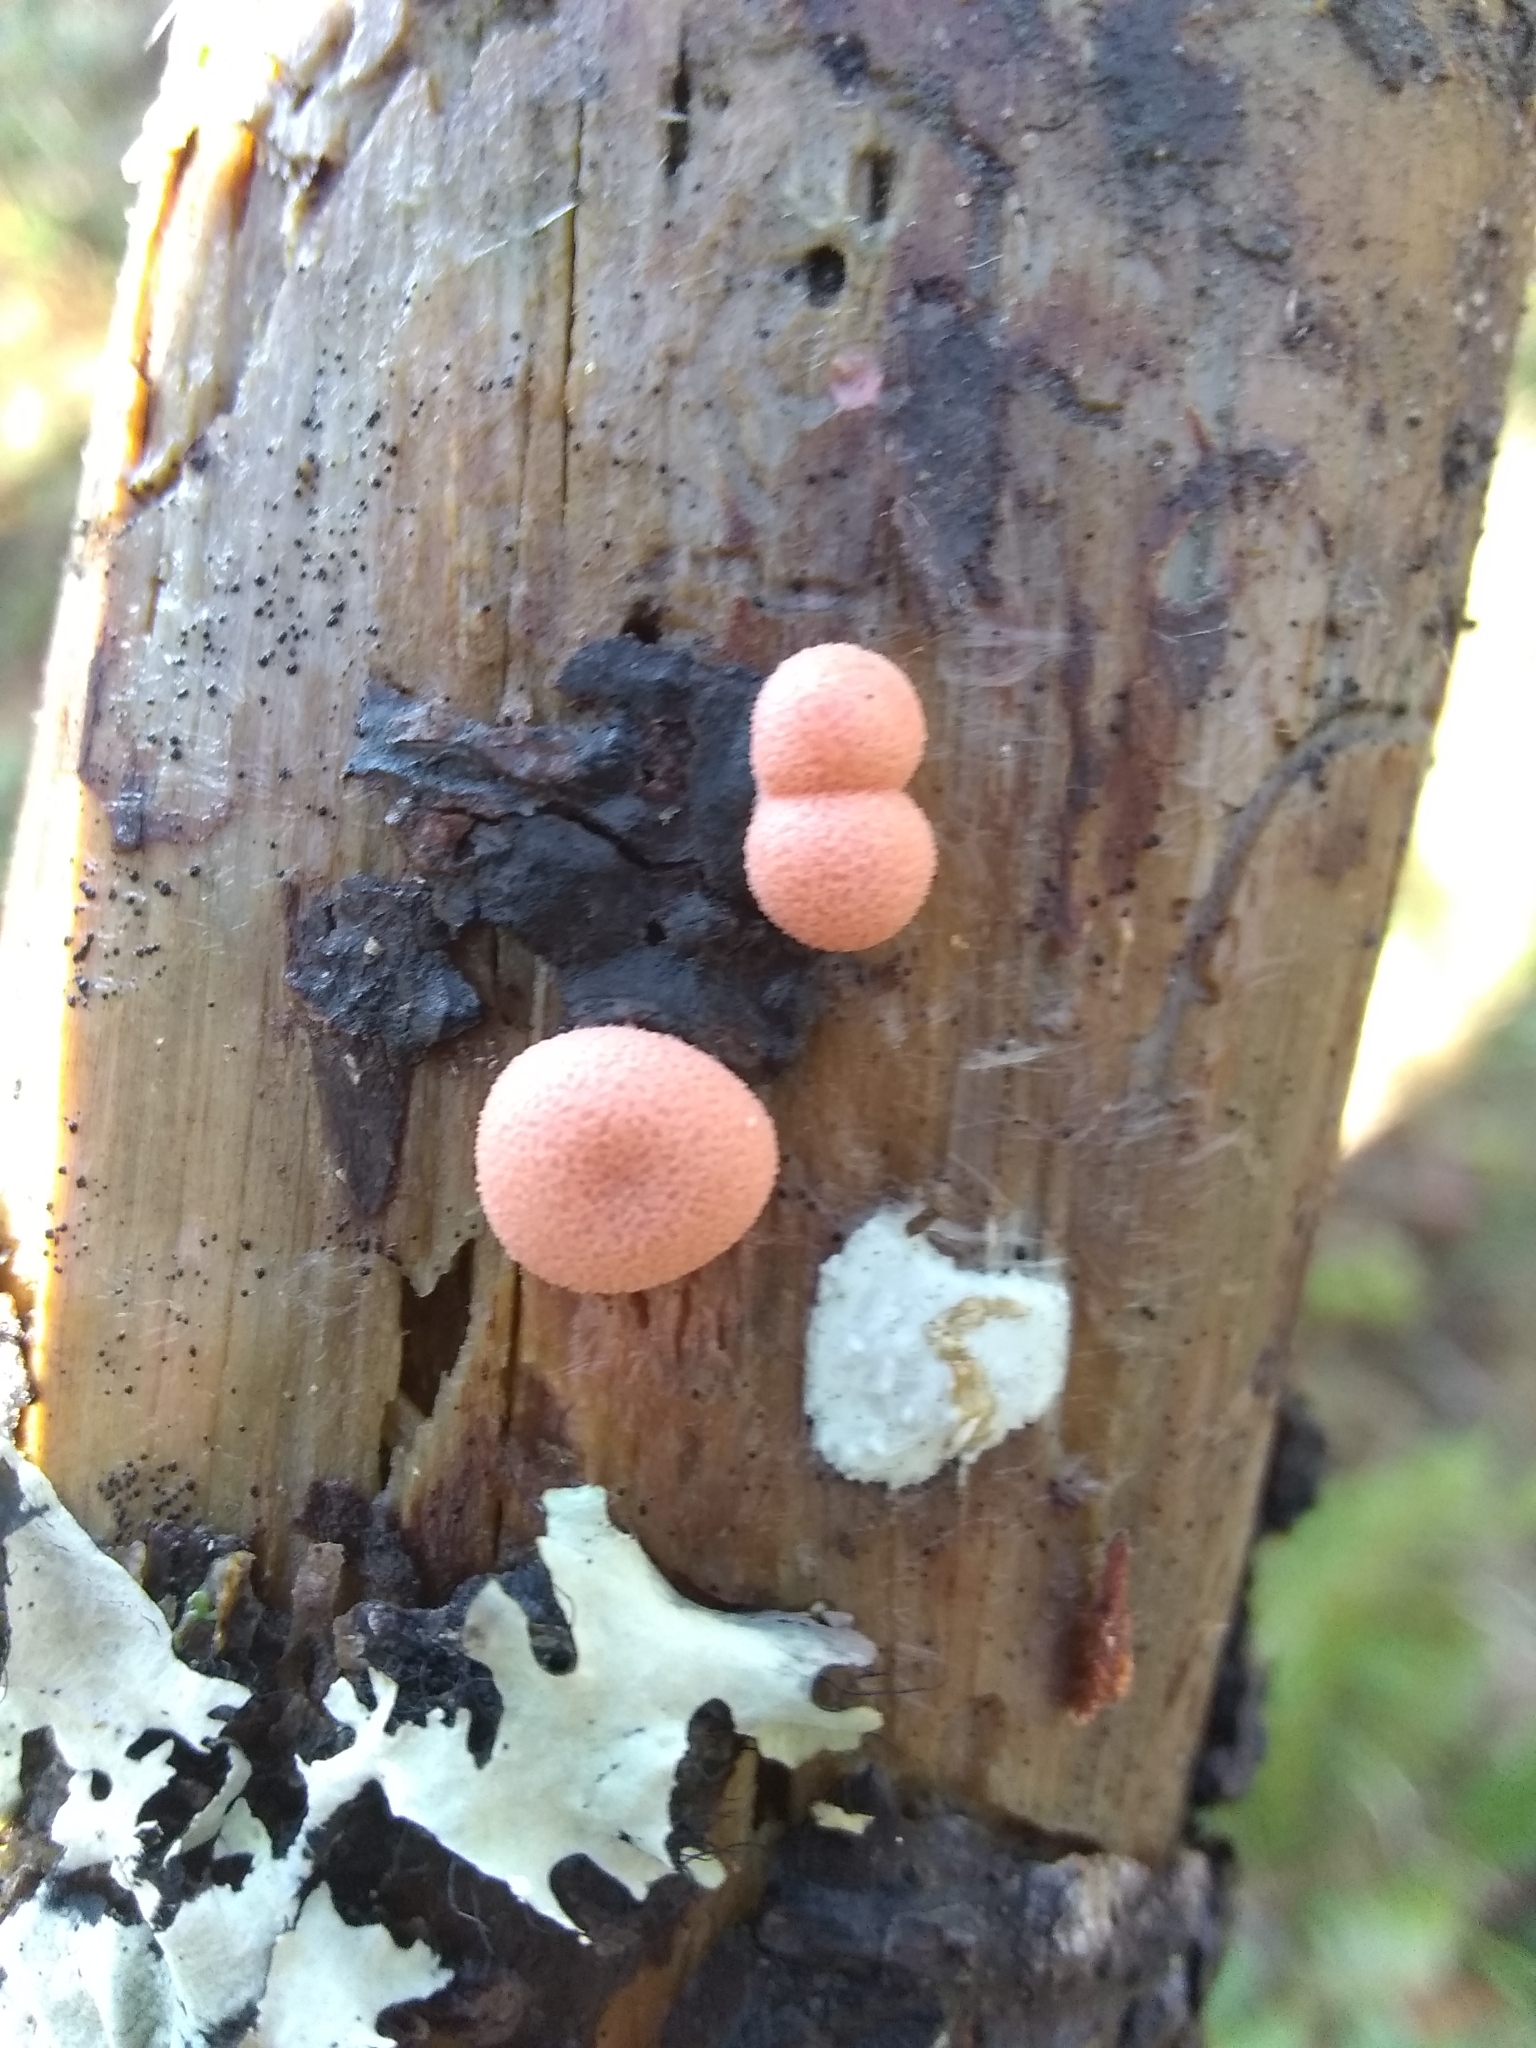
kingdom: Protozoa
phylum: Mycetozoa
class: Myxomycetes
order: Cribrariales
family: Tubiferaceae
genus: Lycogala
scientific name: Lycogala epidendrum
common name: Wolf's milk
